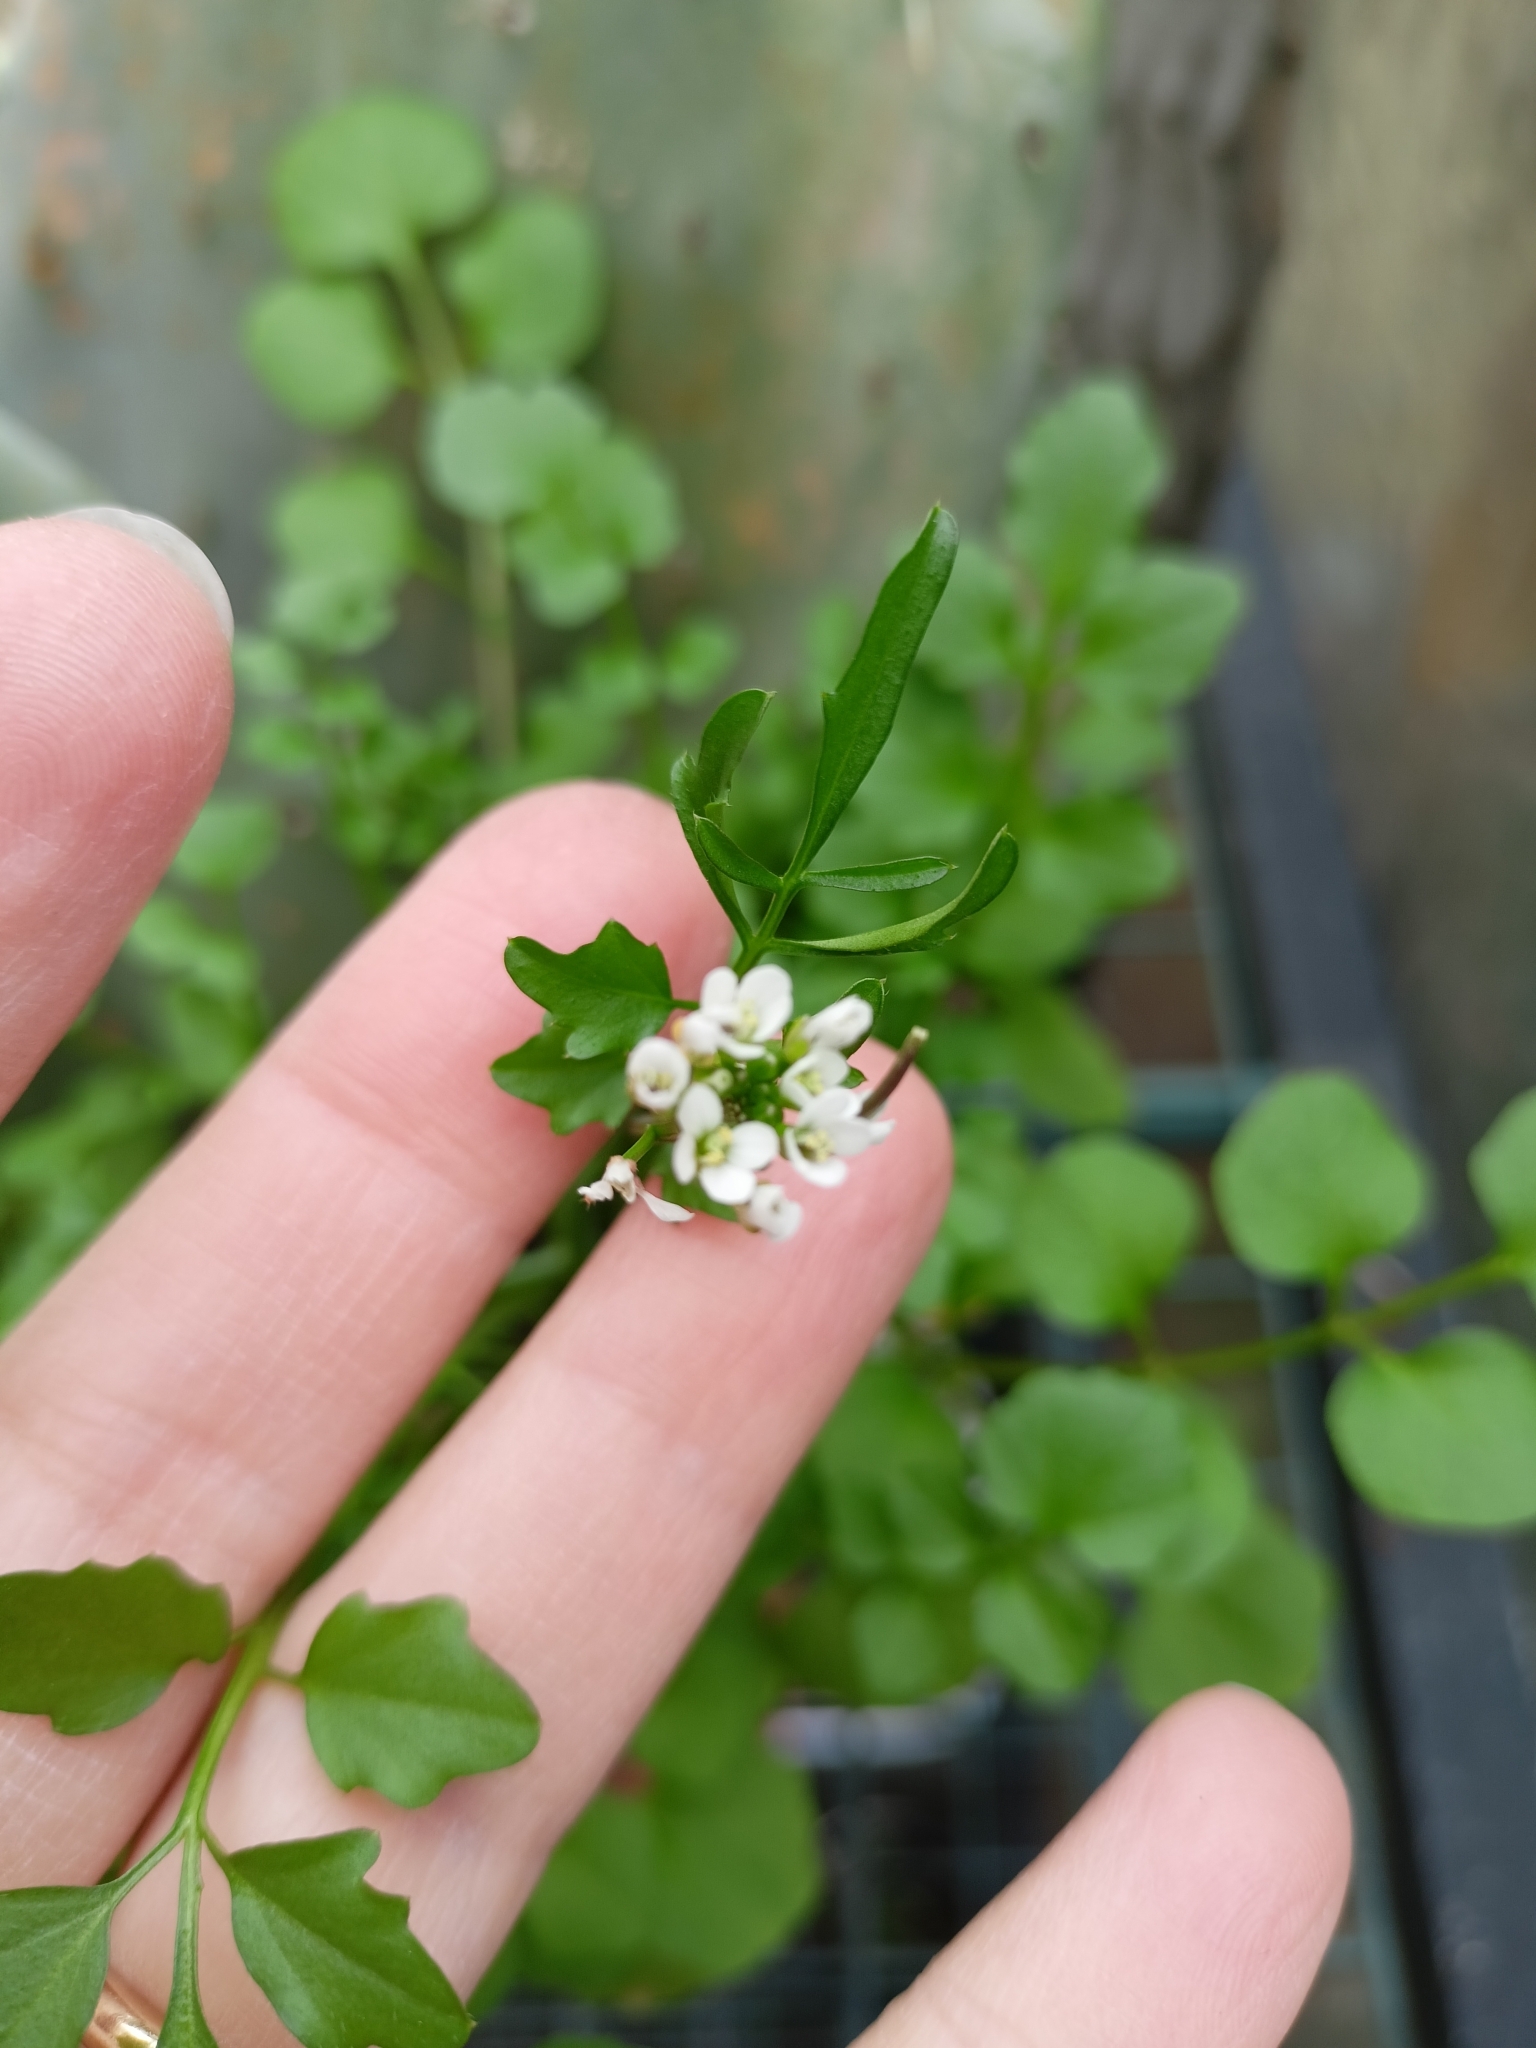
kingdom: Plantae
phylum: Tracheophyta
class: Magnoliopsida
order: Brassicales
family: Brassicaceae
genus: Cardamine
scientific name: Cardamine hirsuta
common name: Hairy bittercress
